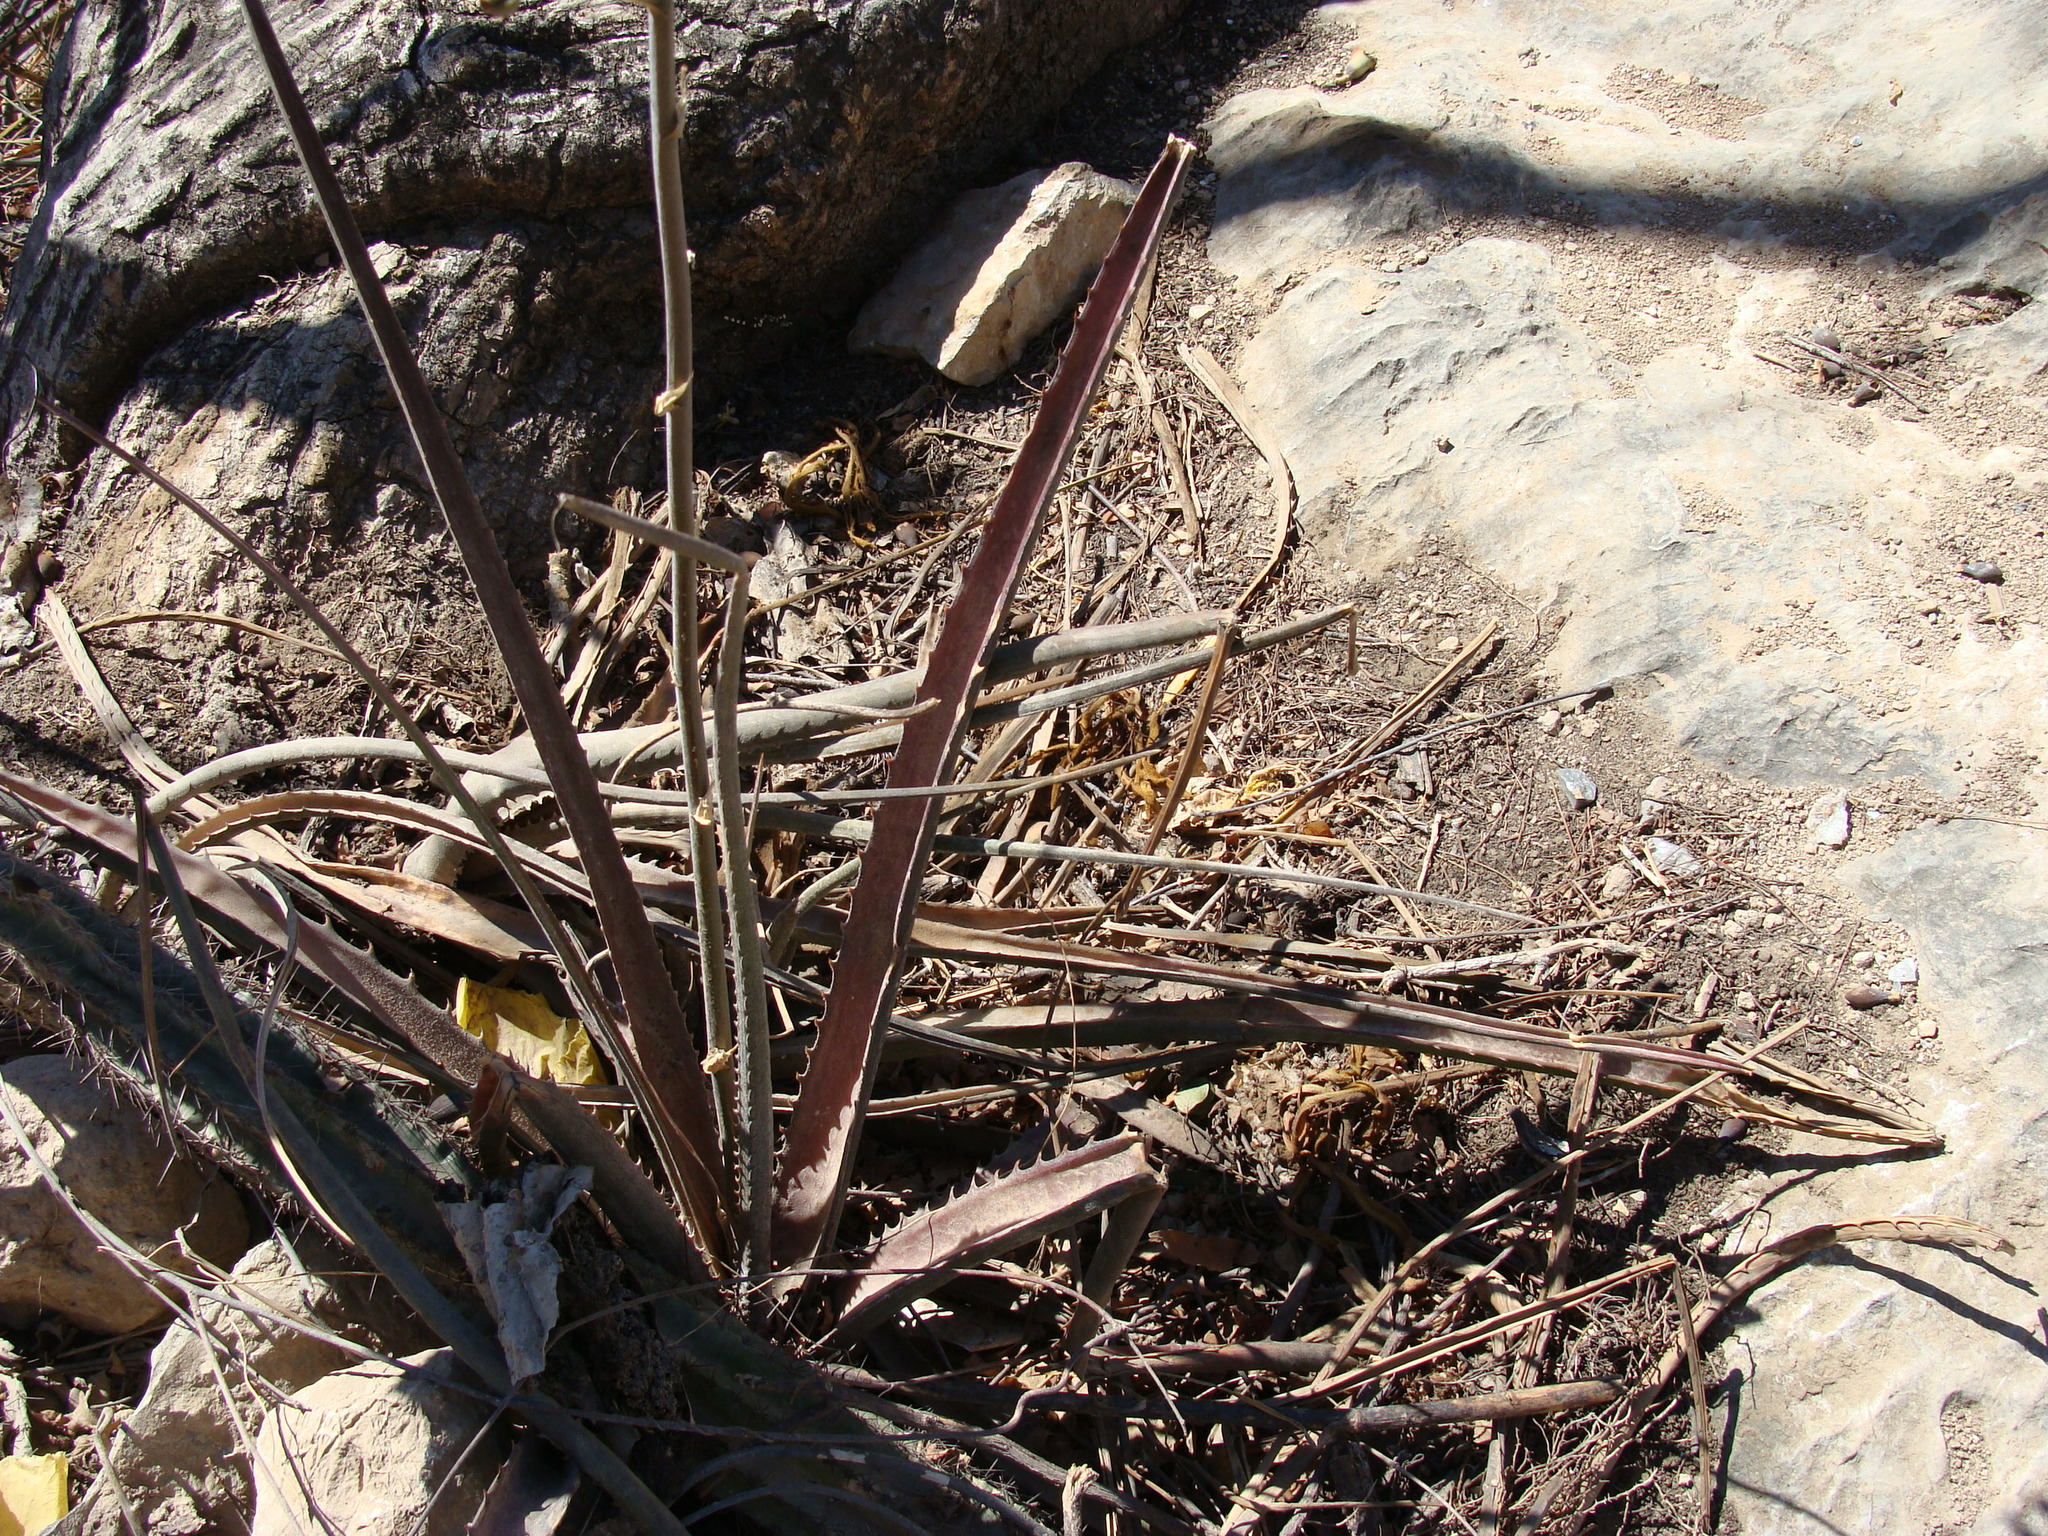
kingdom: Plantae
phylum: Tracheophyta
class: Liliopsida
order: Poales
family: Bromeliaceae
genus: Hechtia
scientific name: Hechtia rosea
